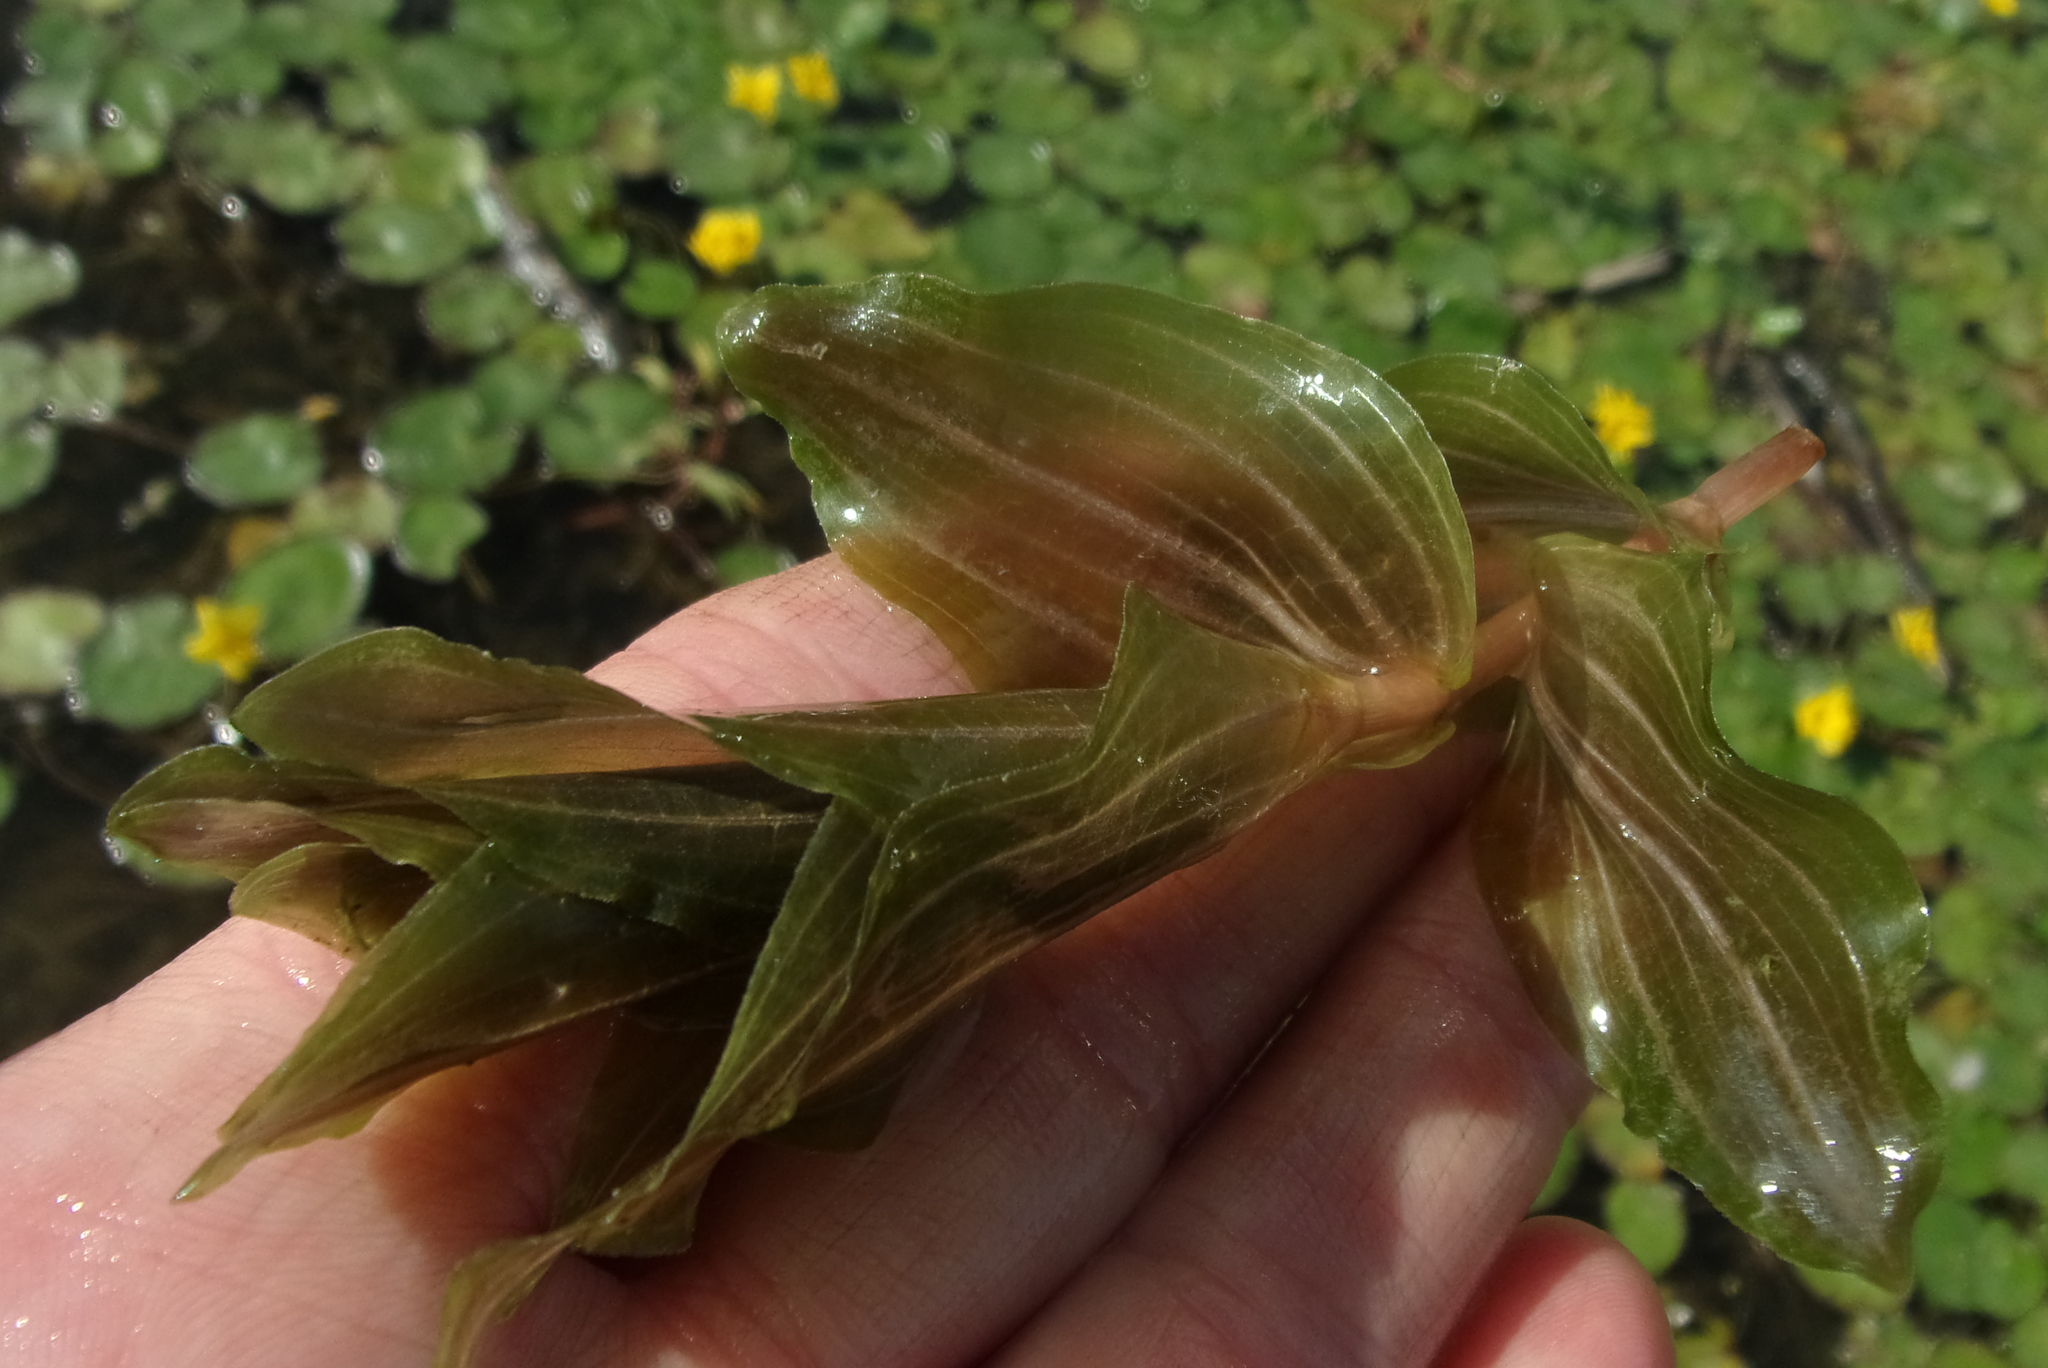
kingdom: Plantae
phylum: Tracheophyta
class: Liliopsida
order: Alismatales
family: Potamogetonaceae
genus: Potamogeton
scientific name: Potamogeton perfoliatus
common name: Perfoliate pondweed
